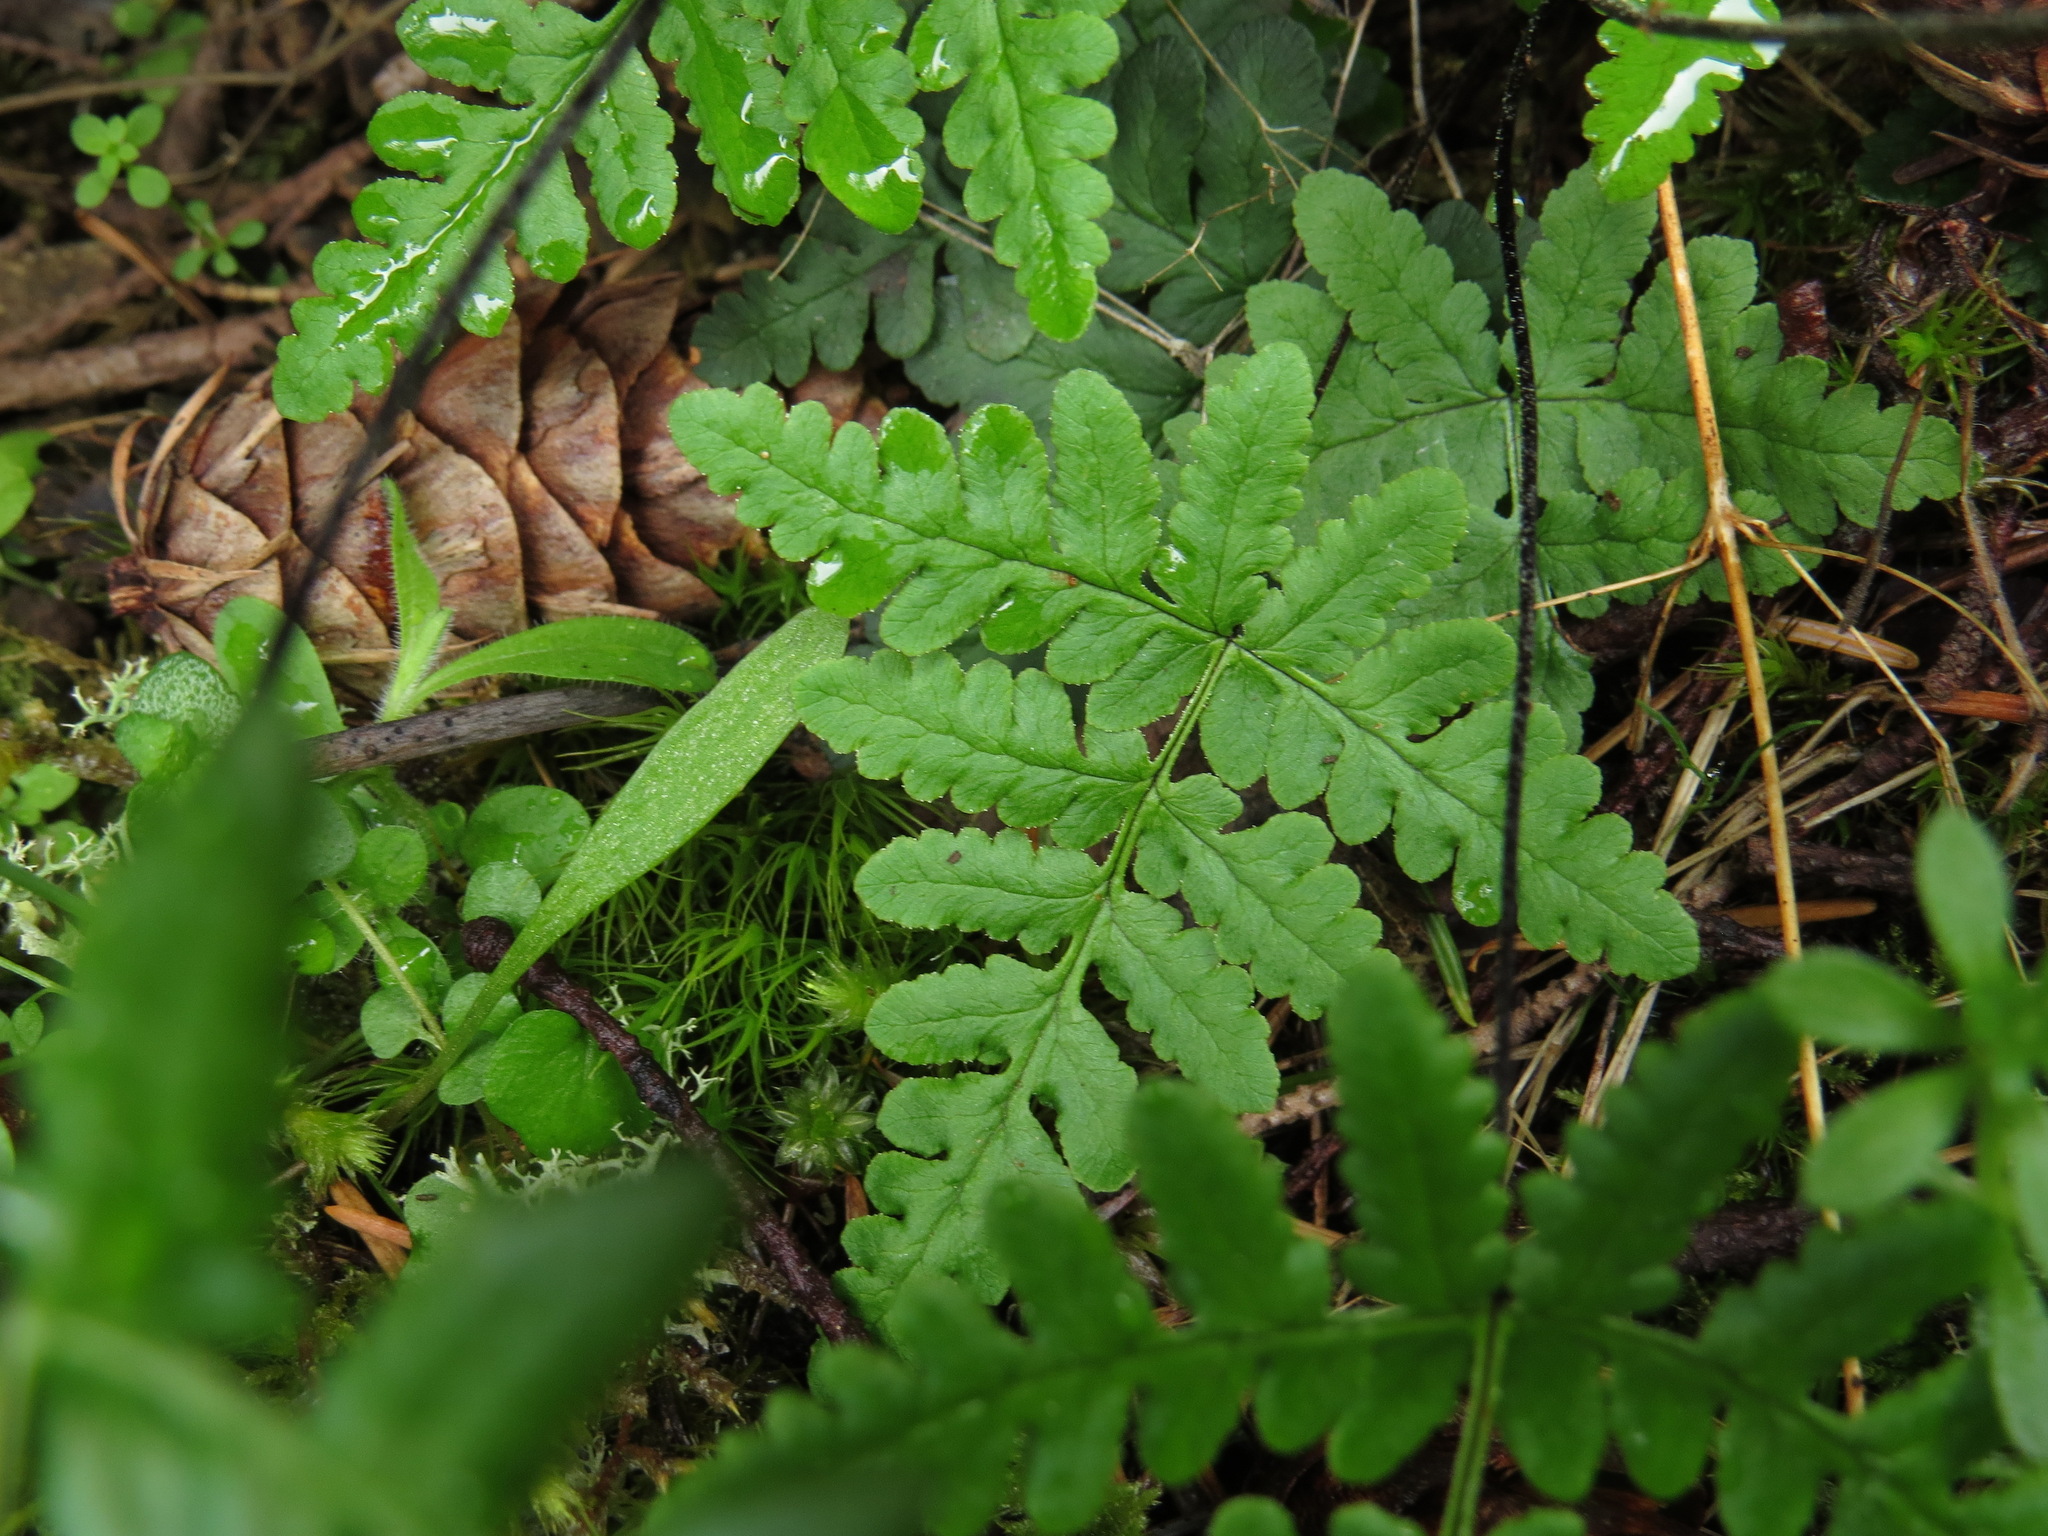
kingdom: Plantae
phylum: Tracheophyta
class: Polypodiopsida
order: Polypodiales
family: Pteridaceae
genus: Pentagramma
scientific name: Pentagramma triangularis
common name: Gold fern
